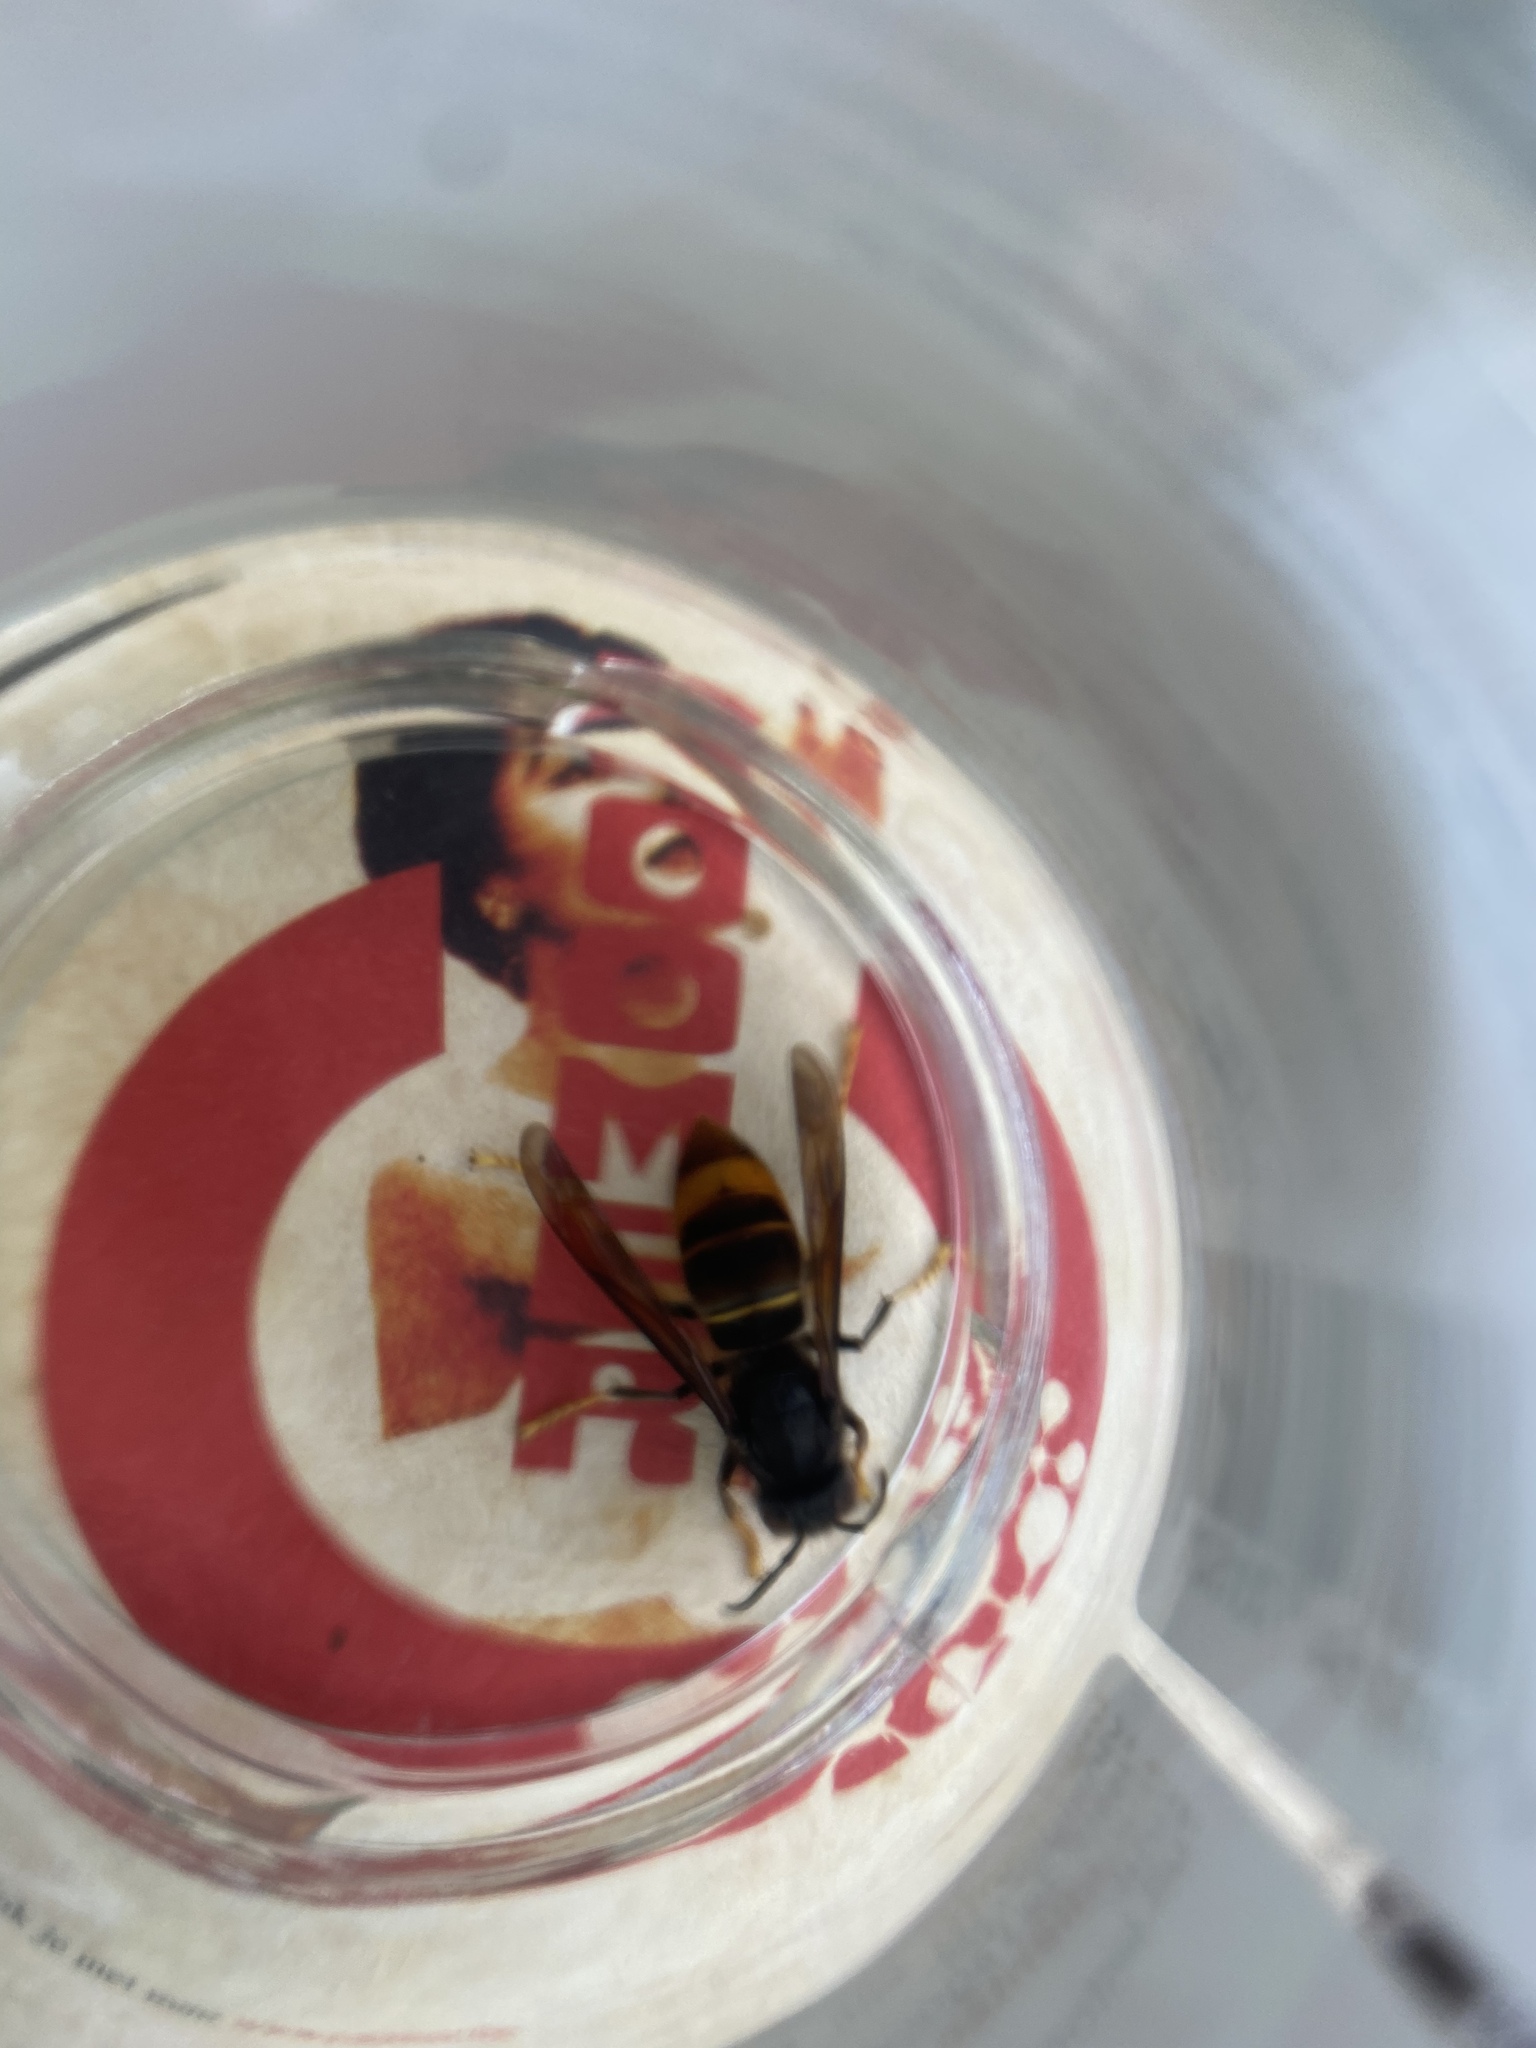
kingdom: Animalia
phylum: Arthropoda
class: Insecta
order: Hymenoptera
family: Vespidae
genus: Vespa
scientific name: Vespa velutina
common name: Asian hornet
